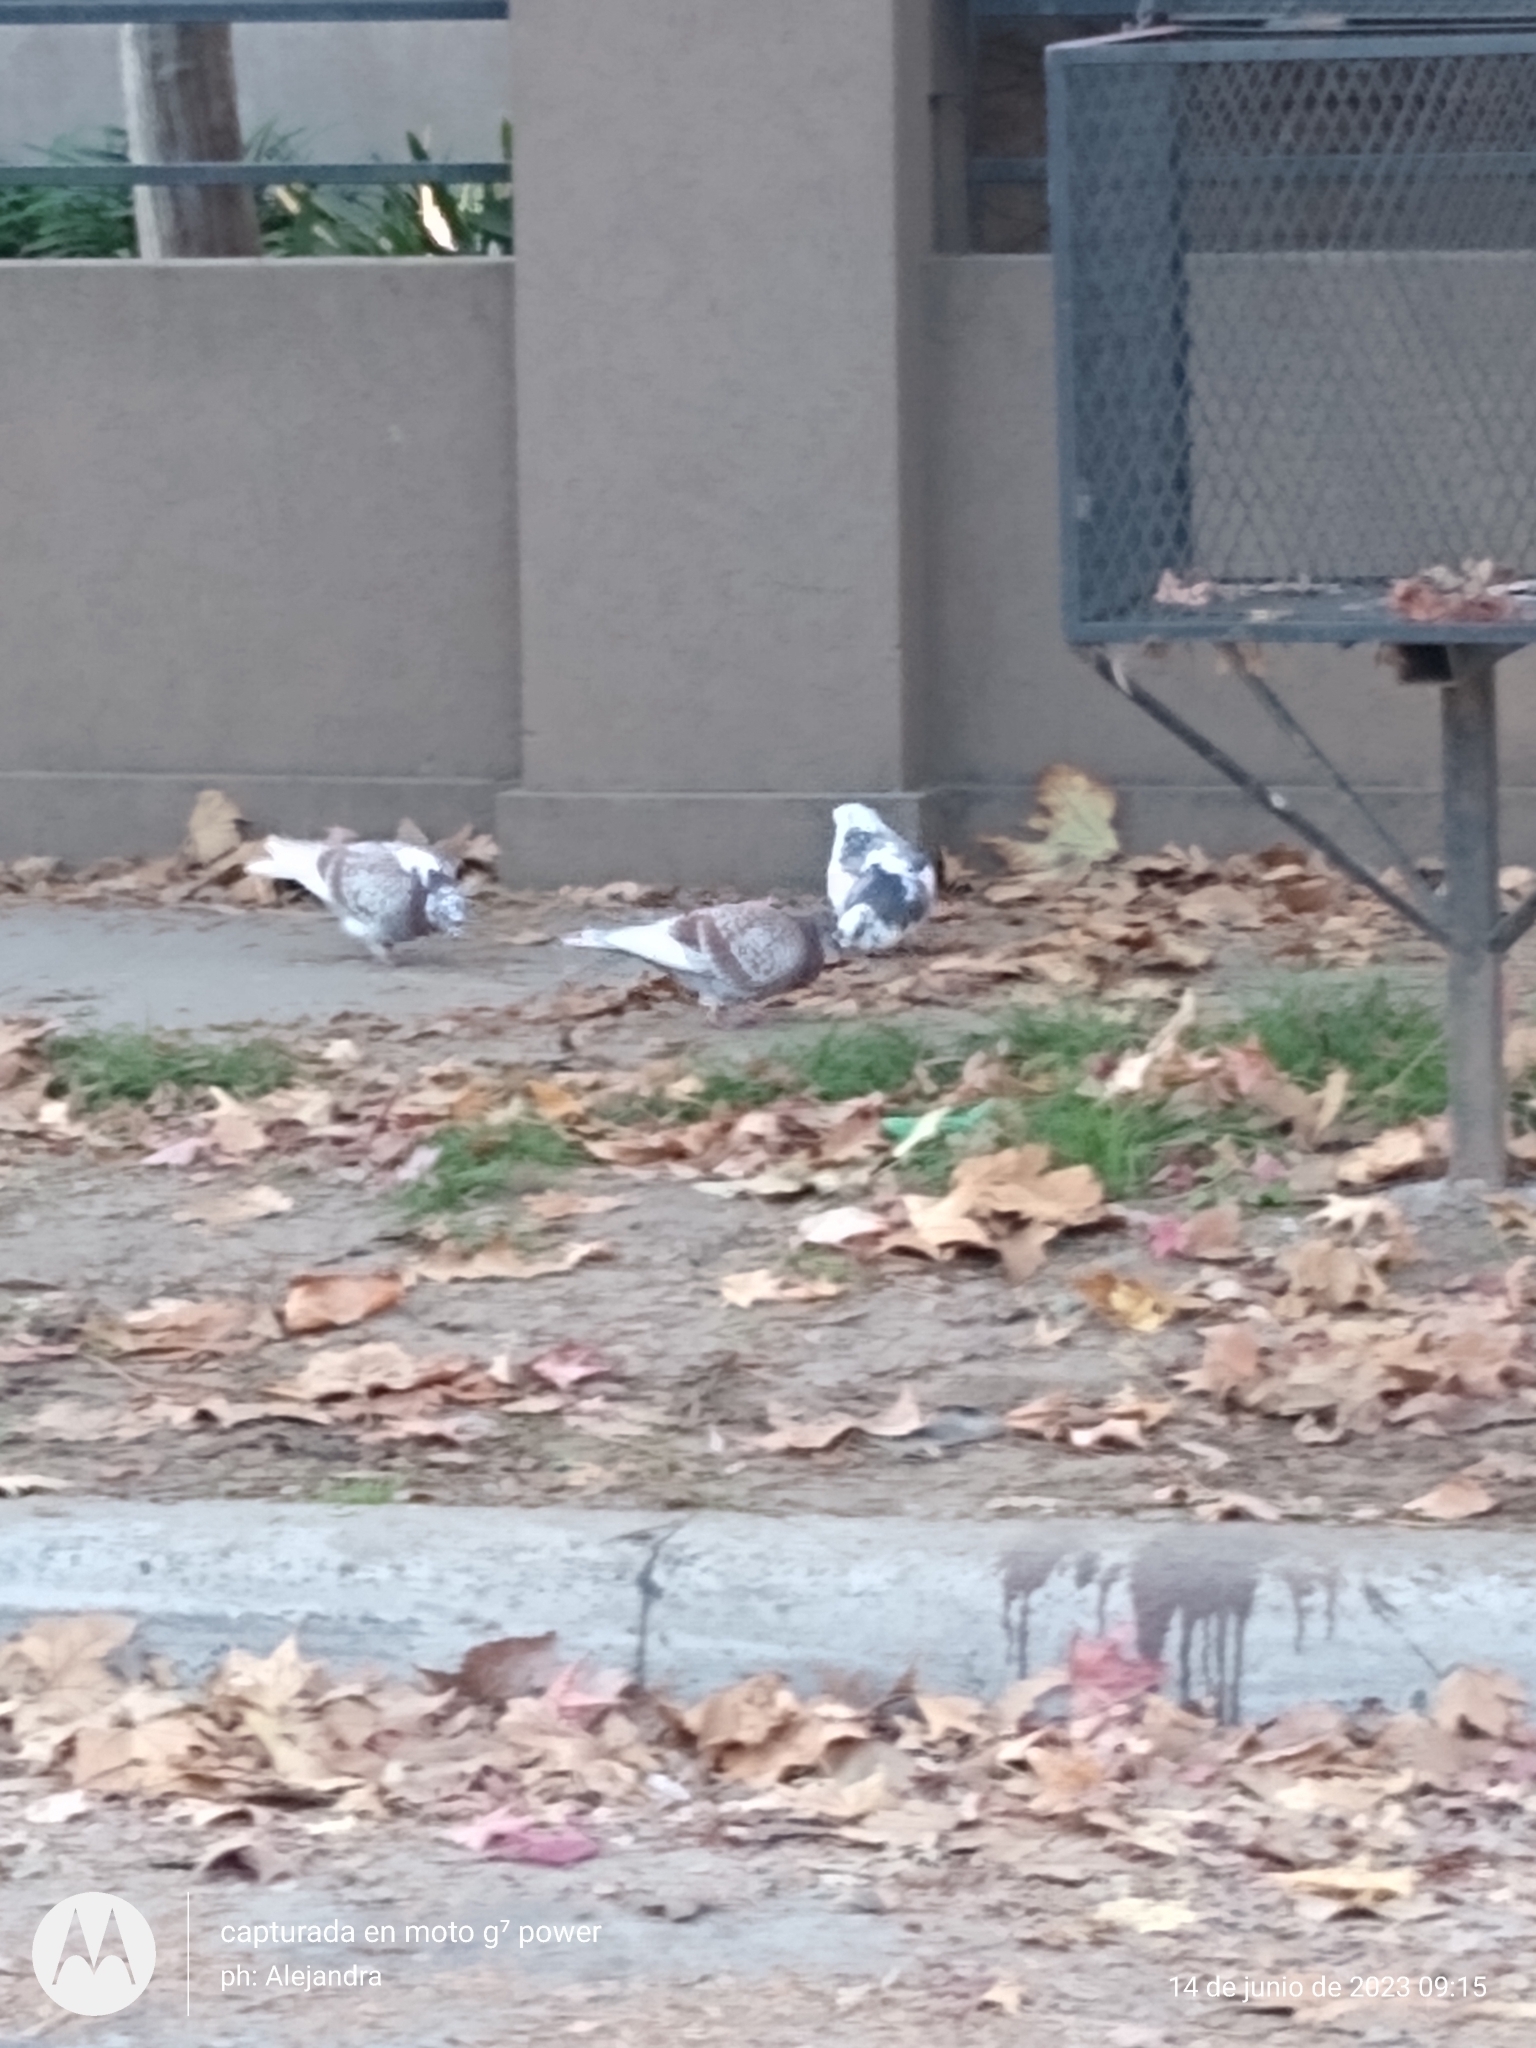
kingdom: Animalia
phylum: Chordata
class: Aves
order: Columbiformes
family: Columbidae
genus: Columba
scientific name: Columba livia
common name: Rock pigeon
